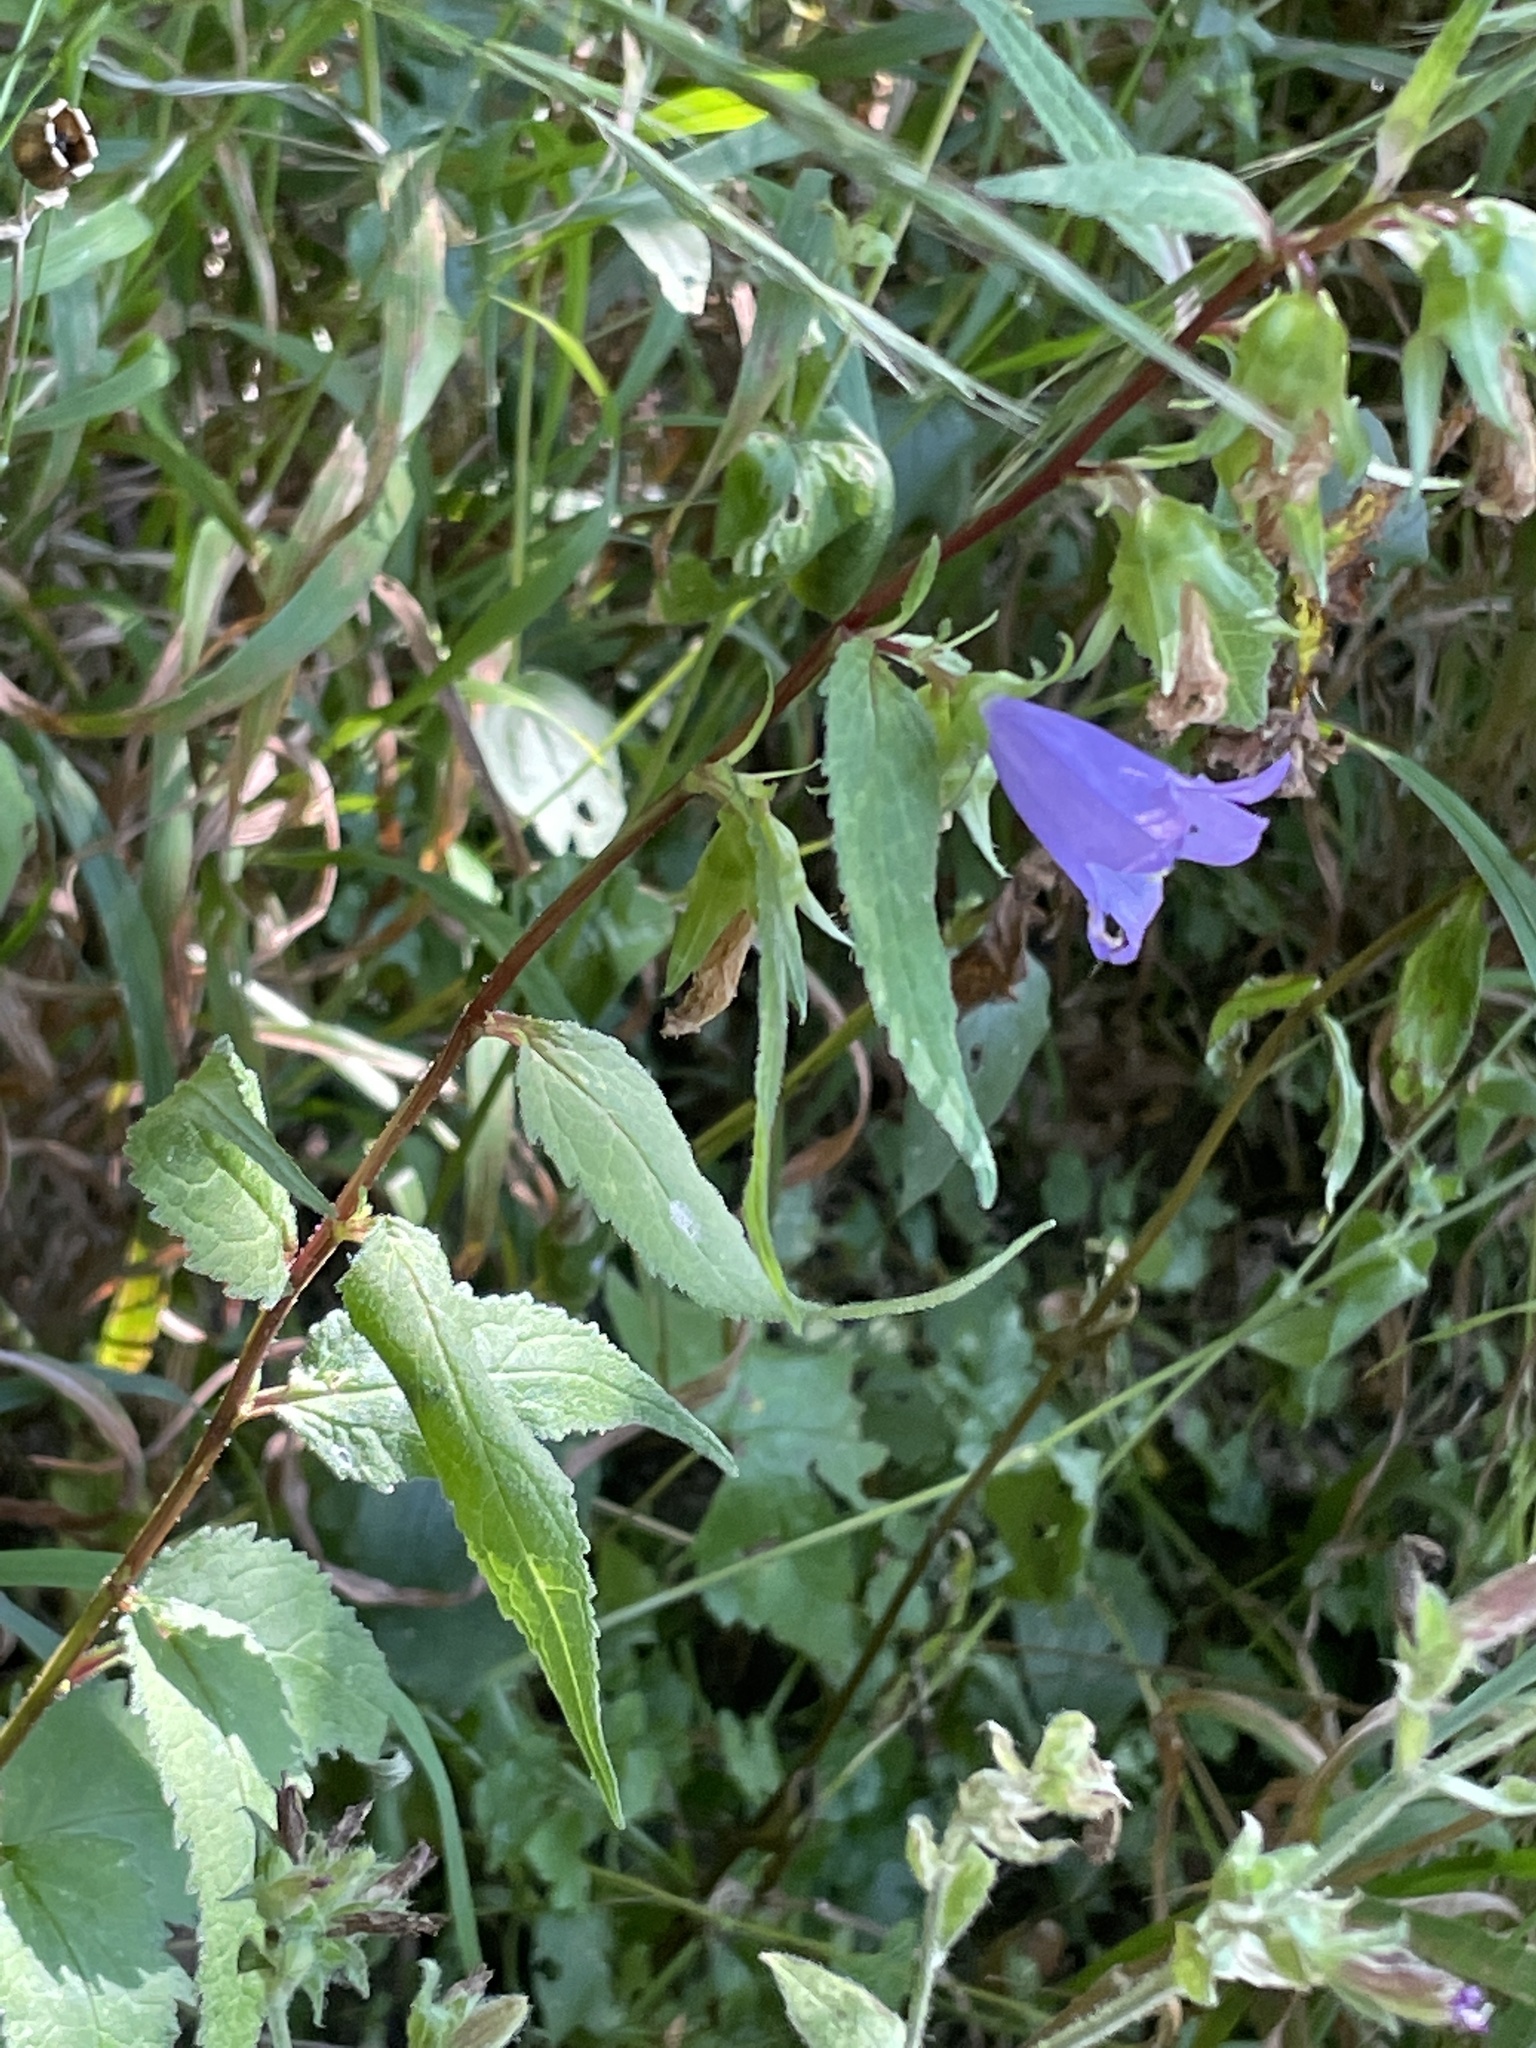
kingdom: Plantae
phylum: Tracheophyta
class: Magnoliopsida
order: Asterales
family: Campanulaceae
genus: Campanula
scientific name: Campanula trachelium
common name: Nettle-leaved bellflower
